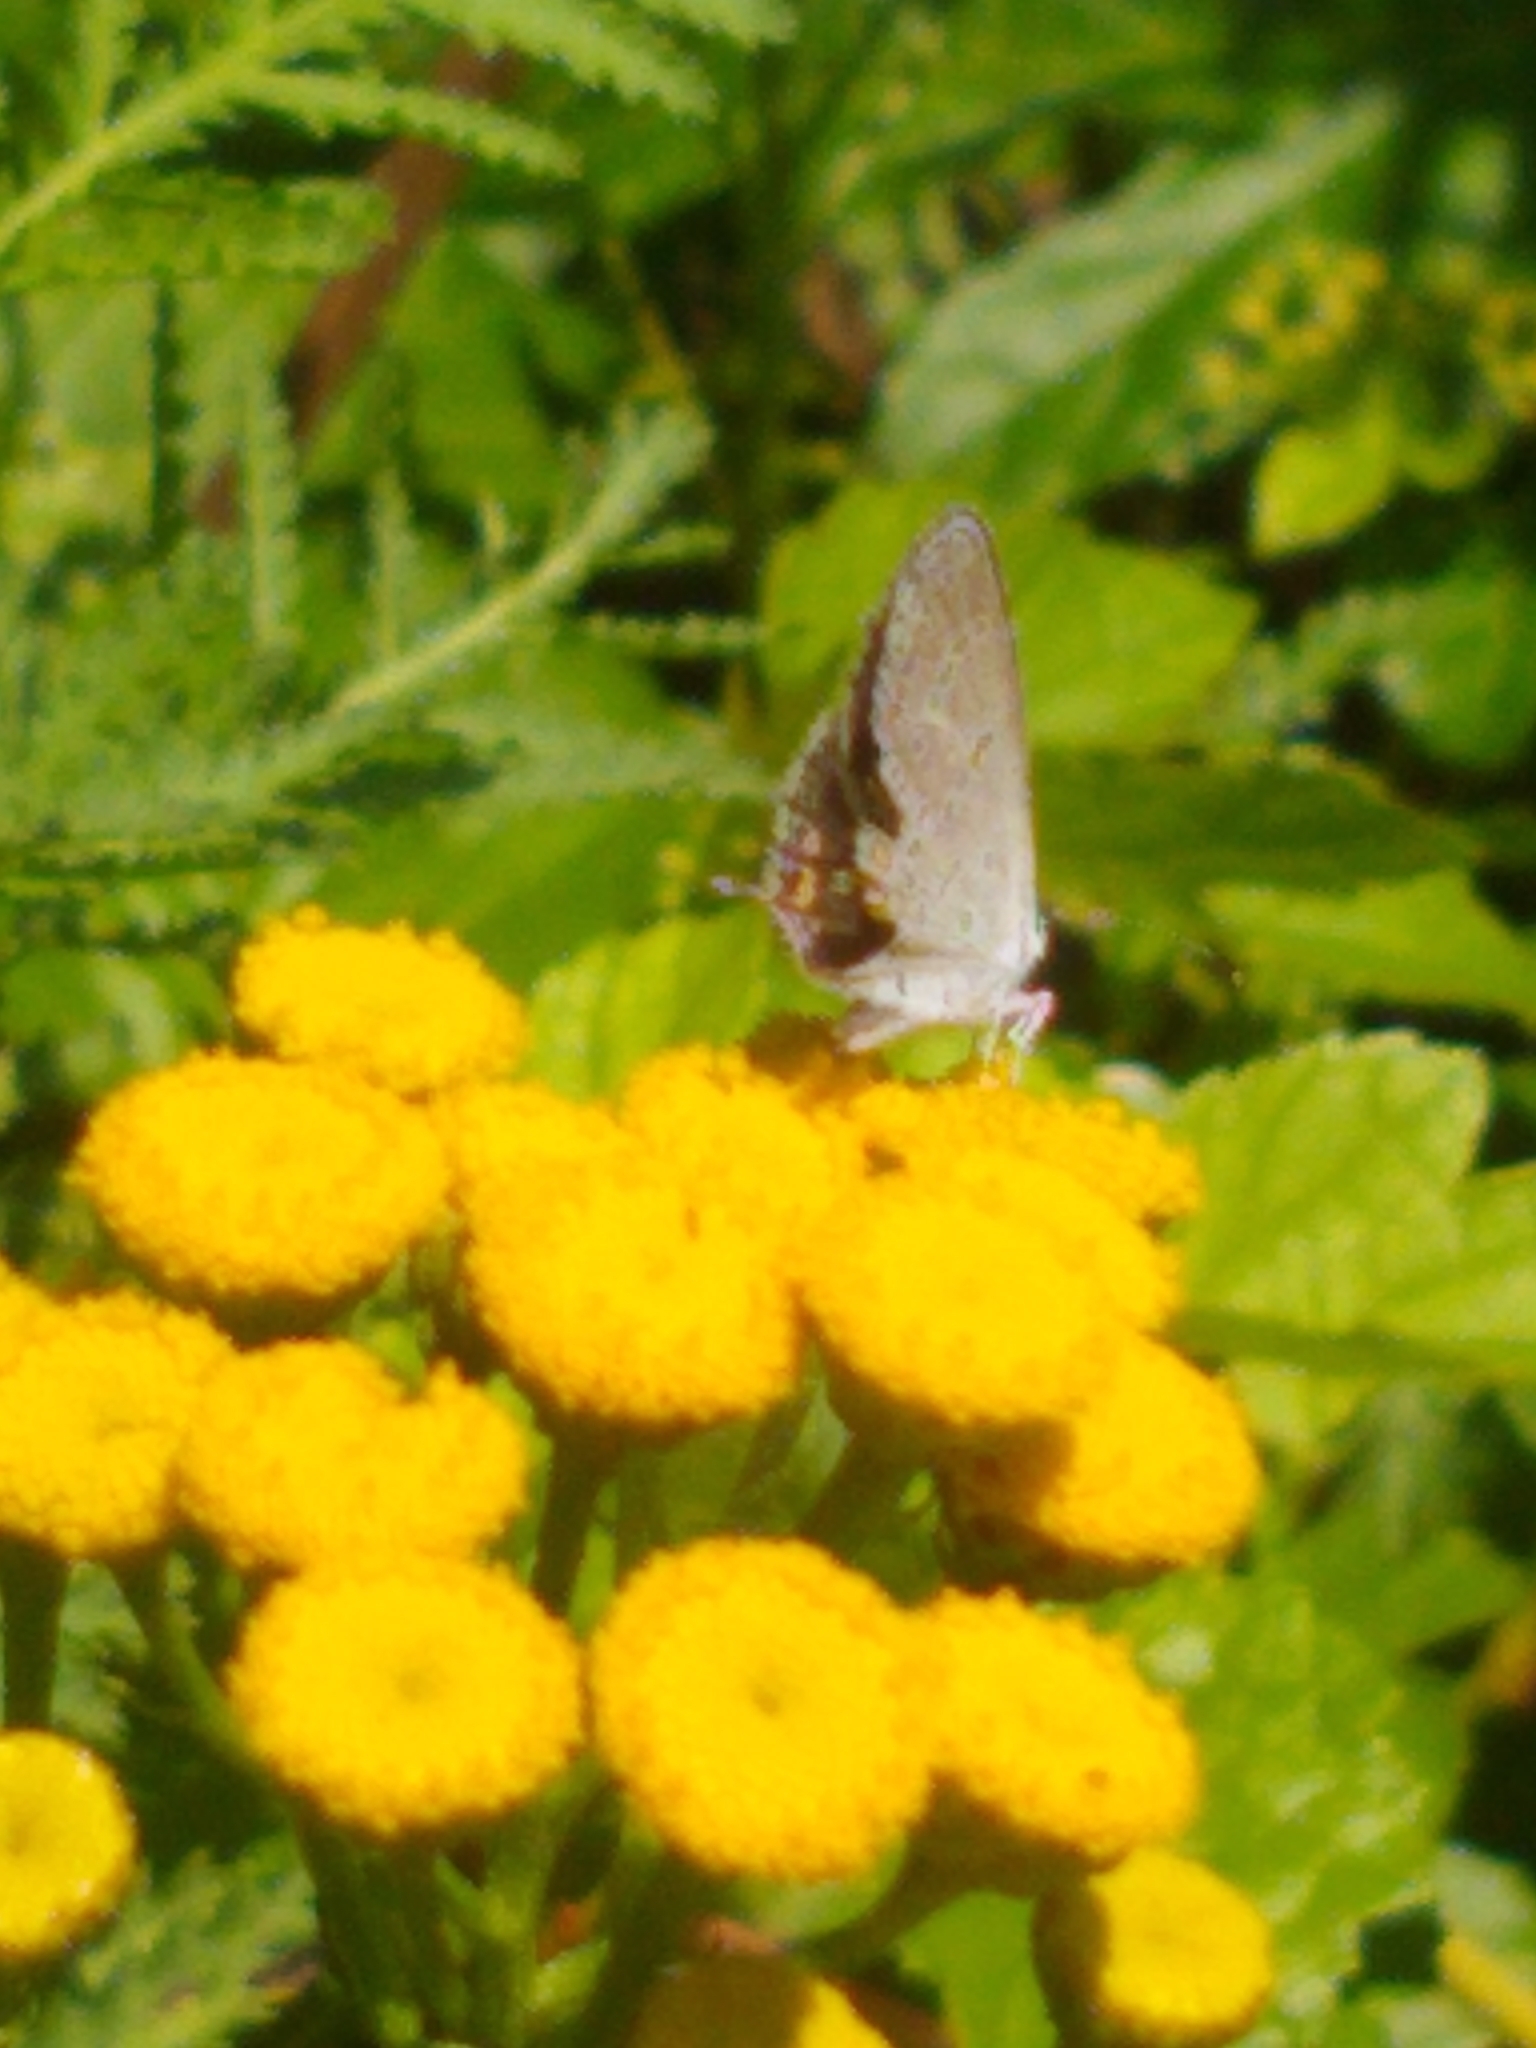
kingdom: Animalia
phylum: Arthropoda
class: Insecta
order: Lepidoptera
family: Lycaenidae
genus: Elkalyce
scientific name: Elkalyce comyntas
